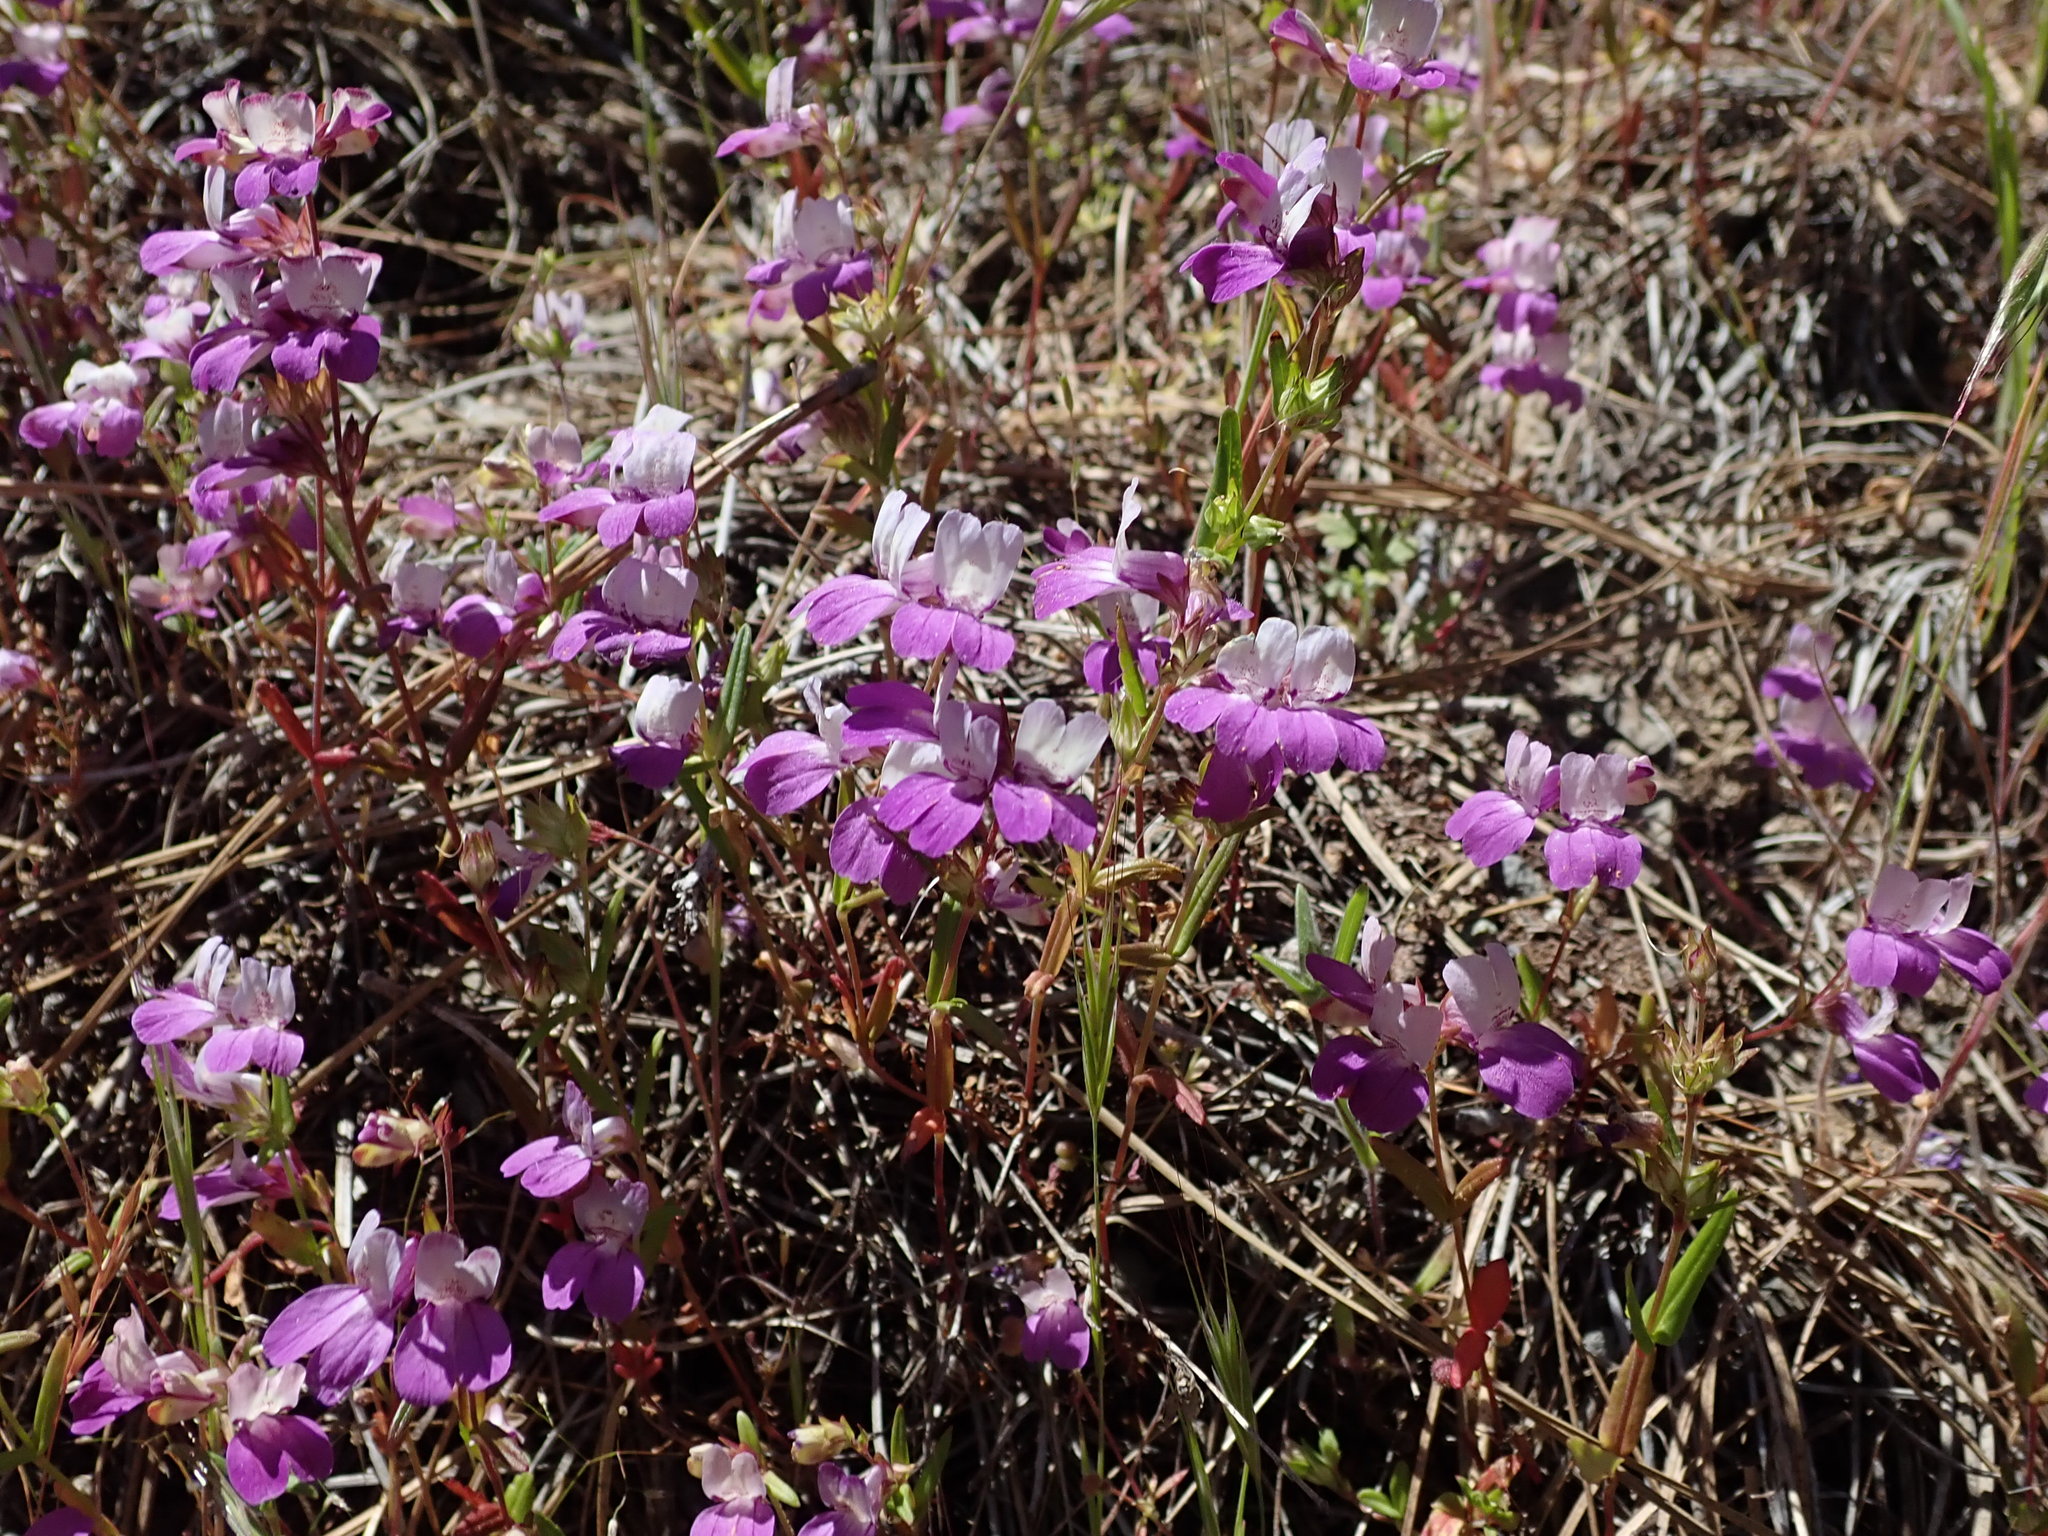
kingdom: Plantae
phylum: Tracheophyta
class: Magnoliopsida
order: Lamiales
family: Plantaginaceae
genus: Collinsia
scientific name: Collinsia heterophylla
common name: Chinese-houses
